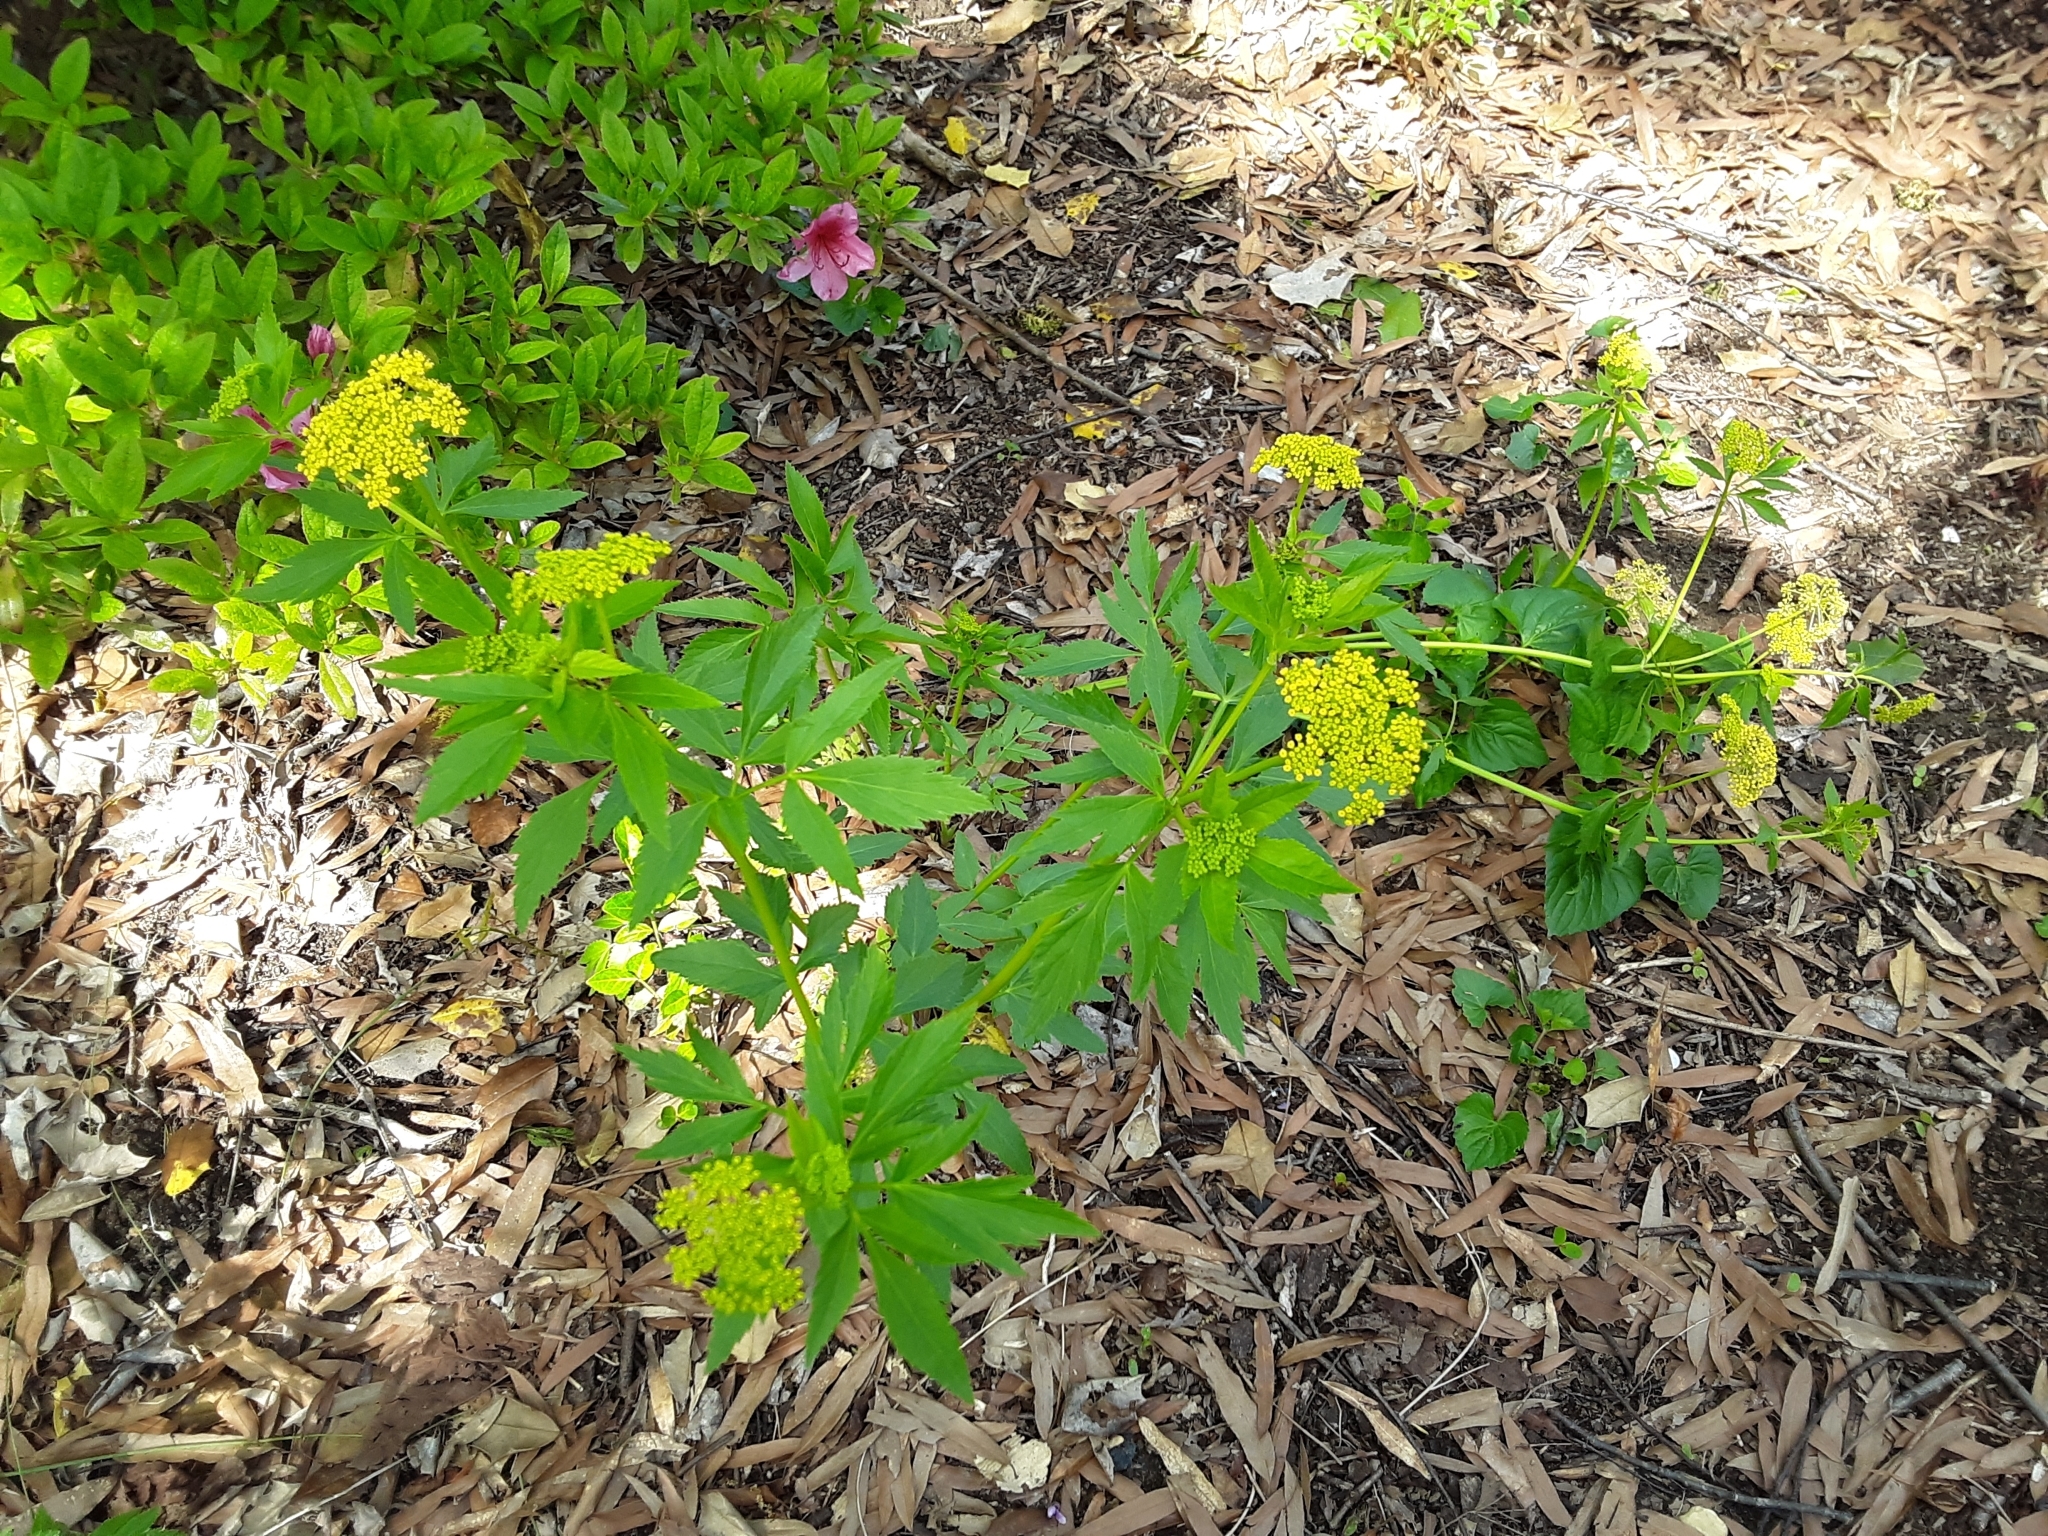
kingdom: Plantae
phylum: Tracheophyta
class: Magnoliopsida
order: Apiales
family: Apiaceae
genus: Zizia
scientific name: Zizia aurea
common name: Golden alexanders
